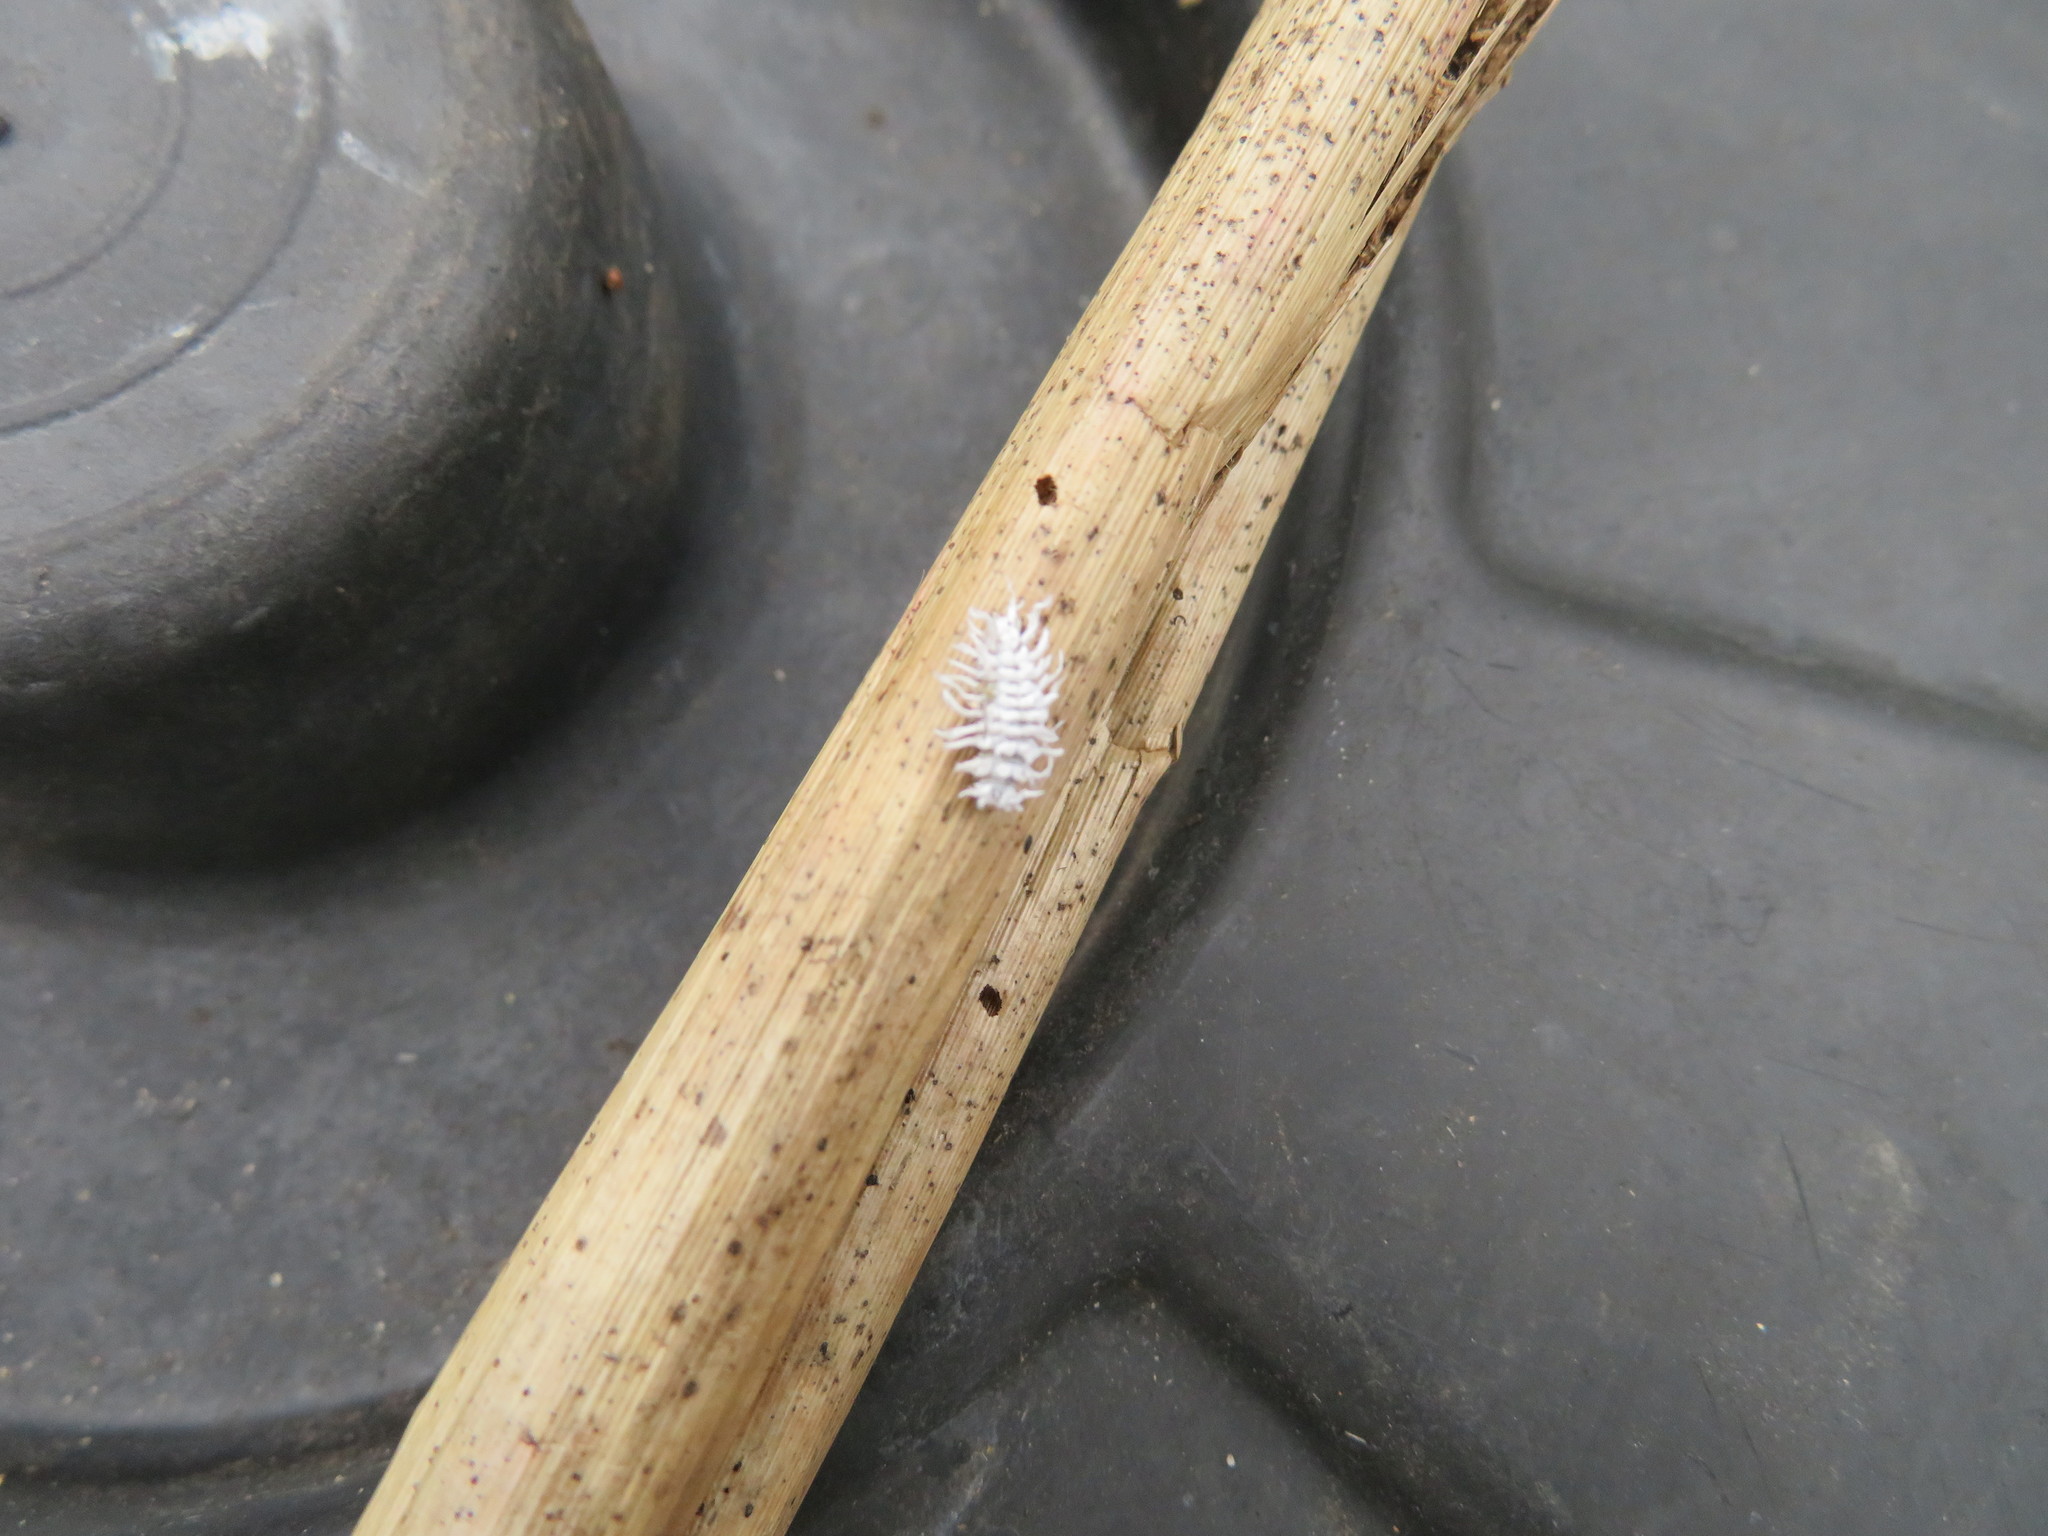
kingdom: Animalia
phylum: Arthropoda
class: Insecta
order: Coleoptera
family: Coccinellidae
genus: Cryptolaemus
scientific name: Cryptolaemus montrouzieri
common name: Mealybug destroyer
